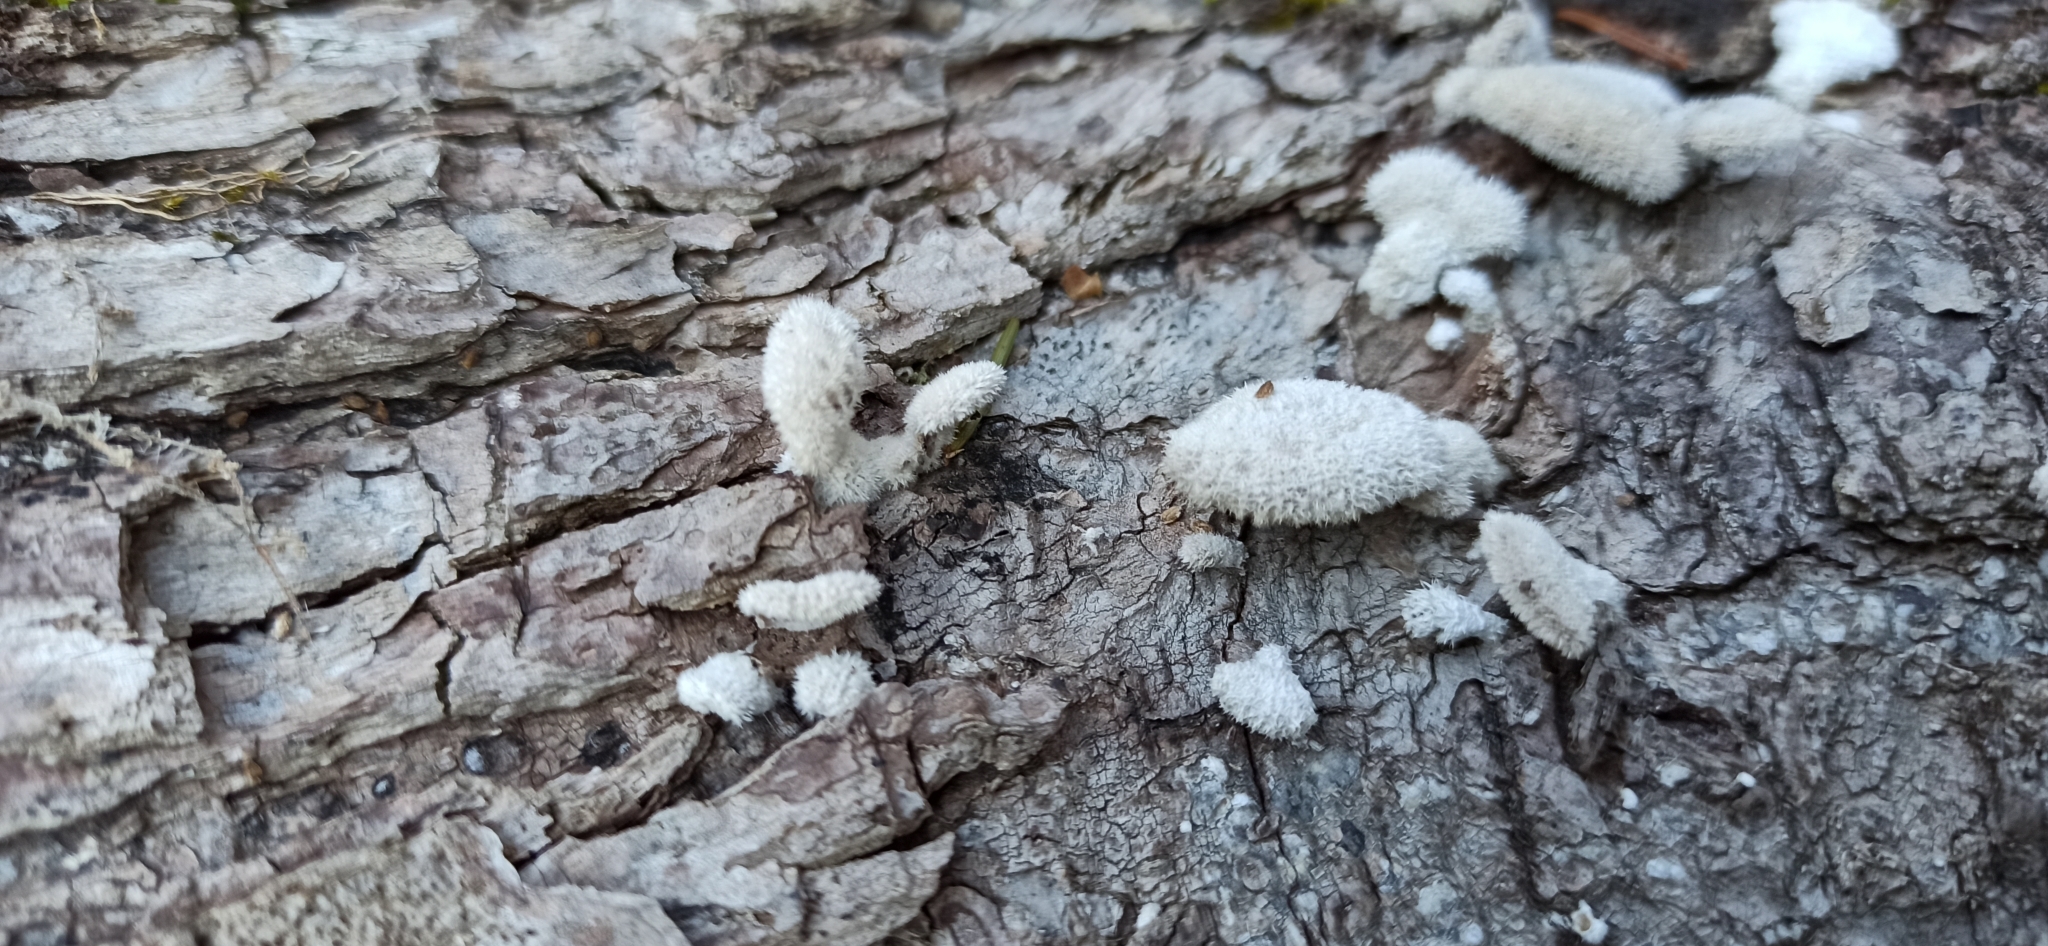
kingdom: Fungi
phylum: Basidiomycota
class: Agaricomycetes
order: Agaricales
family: Schizophyllaceae
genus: Schizophyllum
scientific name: Schizophyllum commune
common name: Common porecrust
